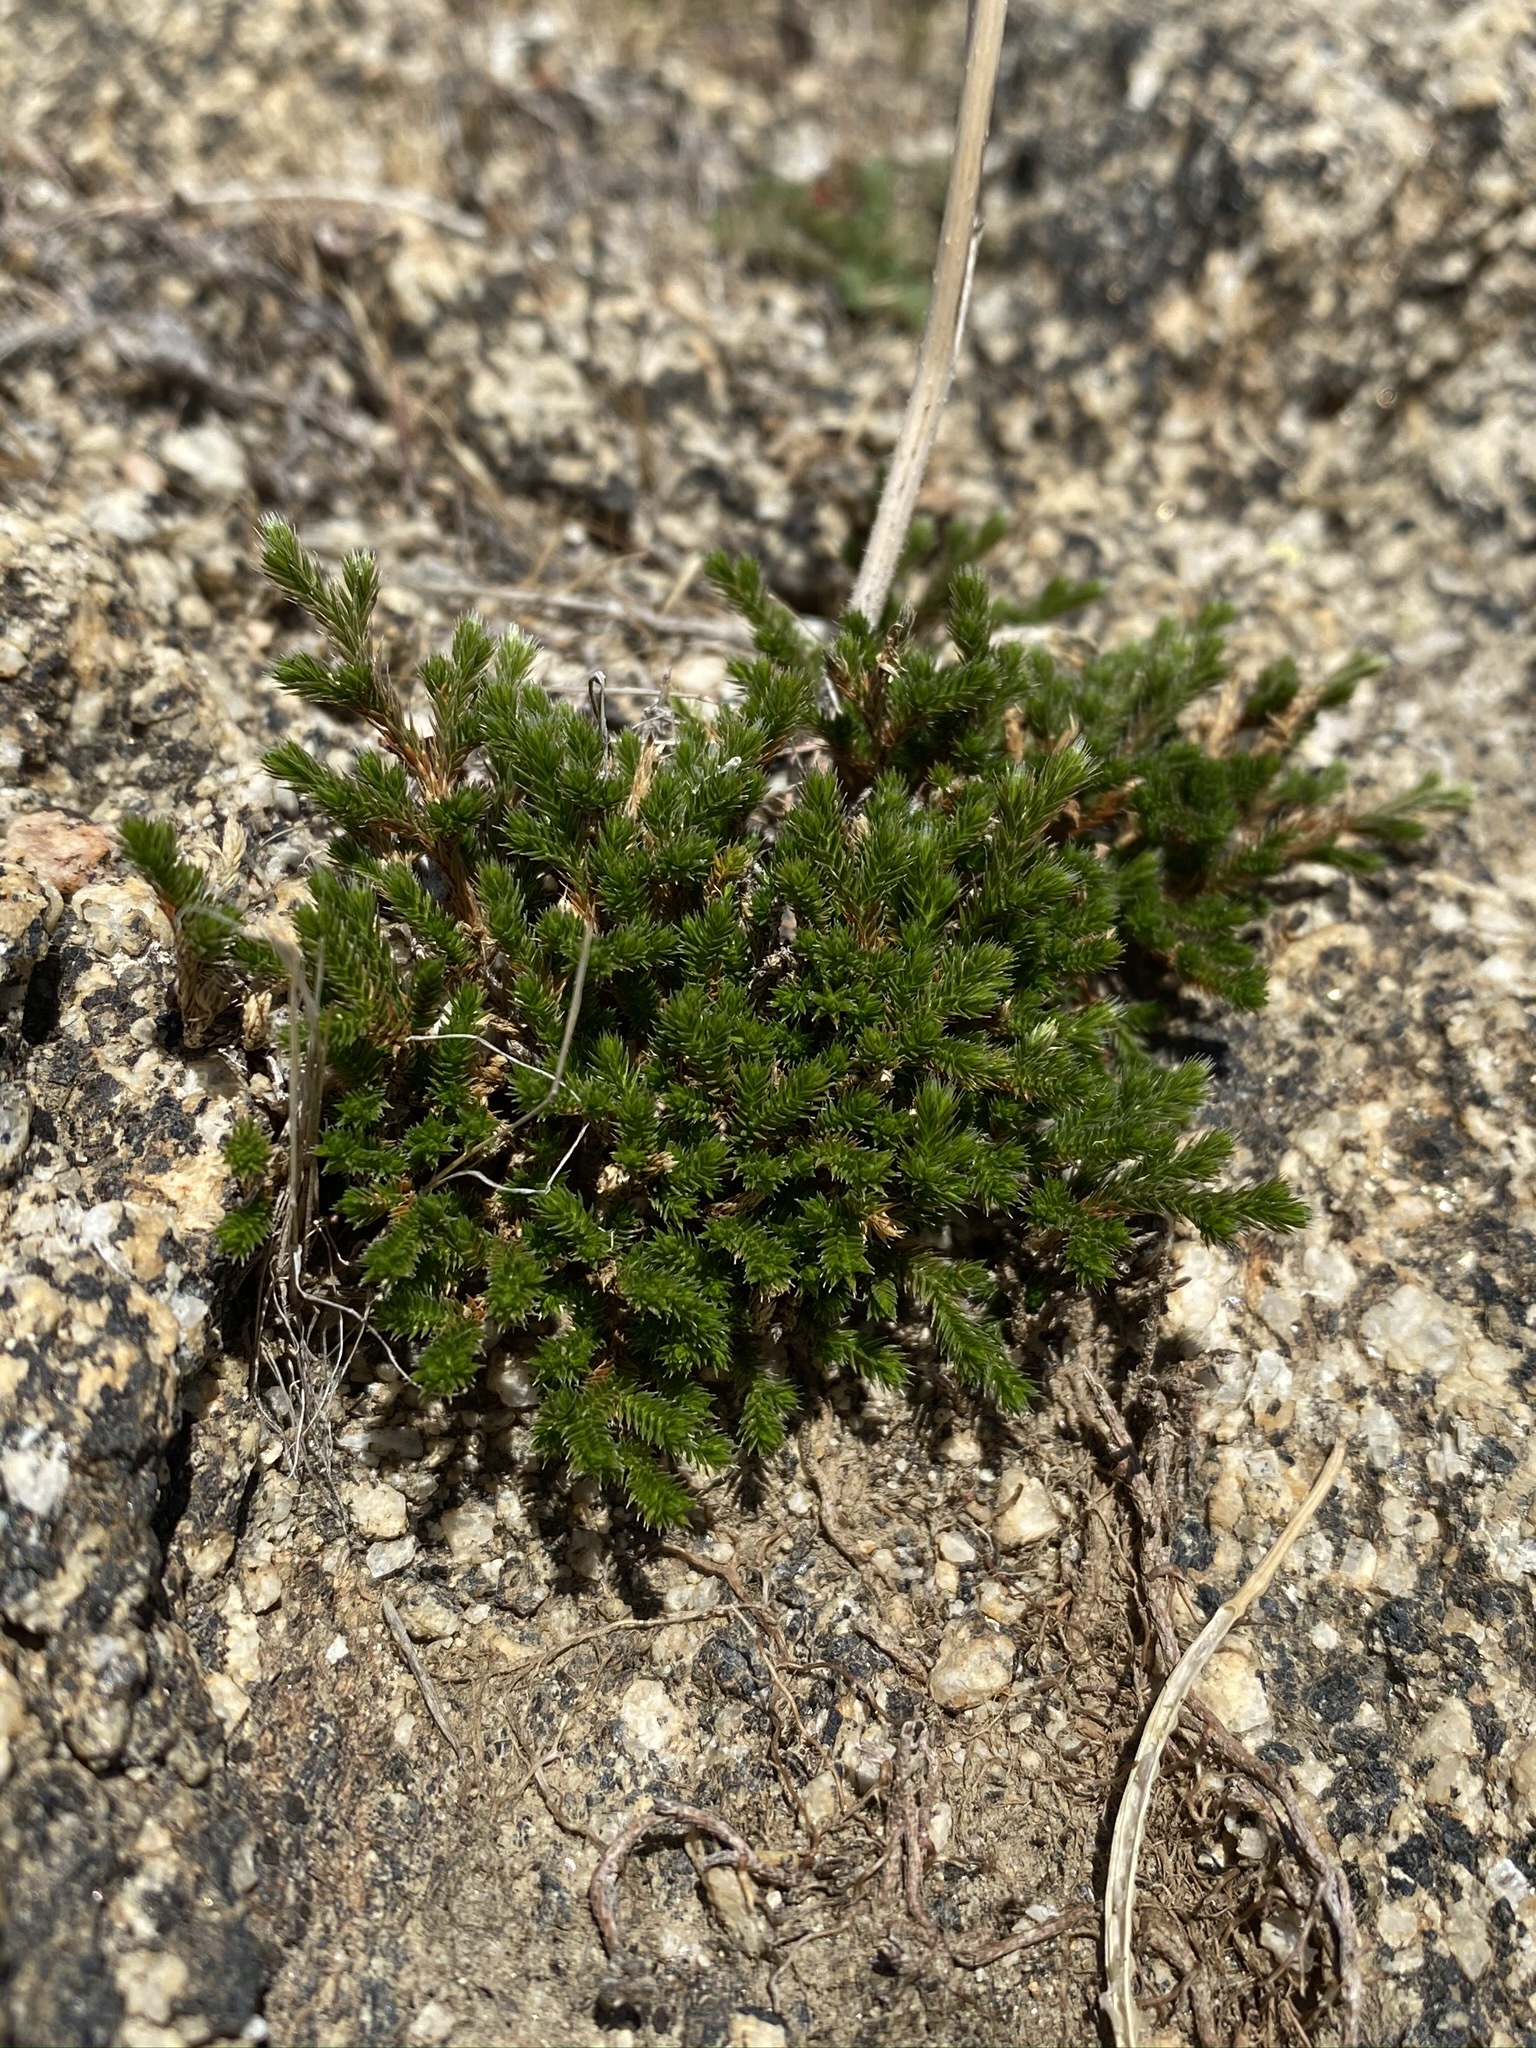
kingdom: Plantae
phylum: Tracheophyta
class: Lycopodiopsida
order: Selaginellales
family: Selaginellaceae
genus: Selaginella
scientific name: Selaginella bigelovii
